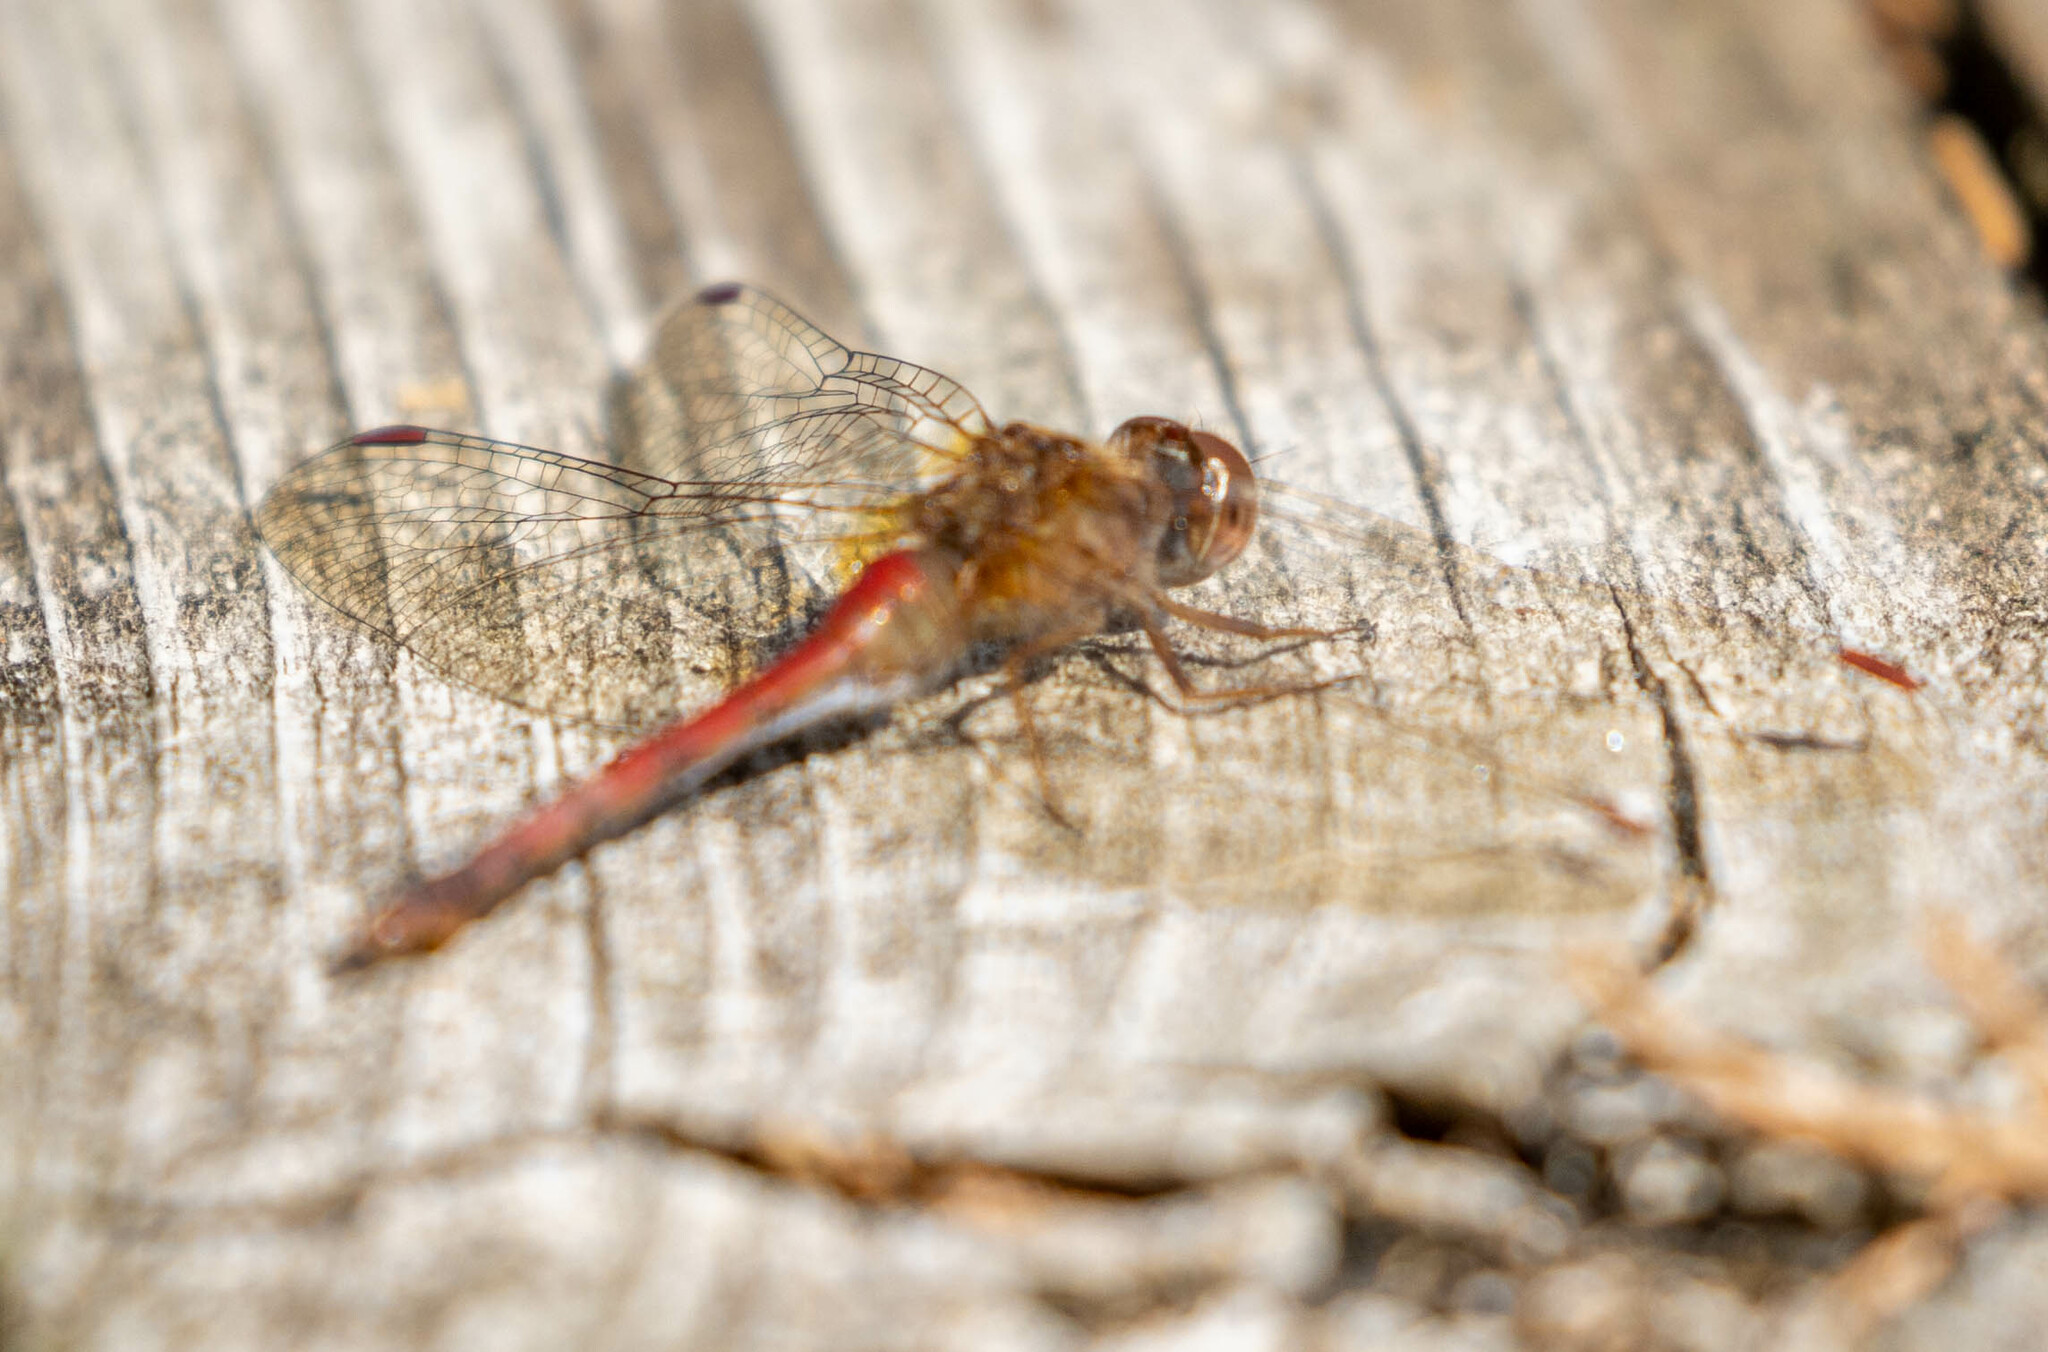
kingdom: Animalia
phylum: Arthropoda
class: Insecta
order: Odonata
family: Libellulidae
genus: Sympetrum
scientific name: Sympetrum vicinum
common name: Autumn meadowhawk
